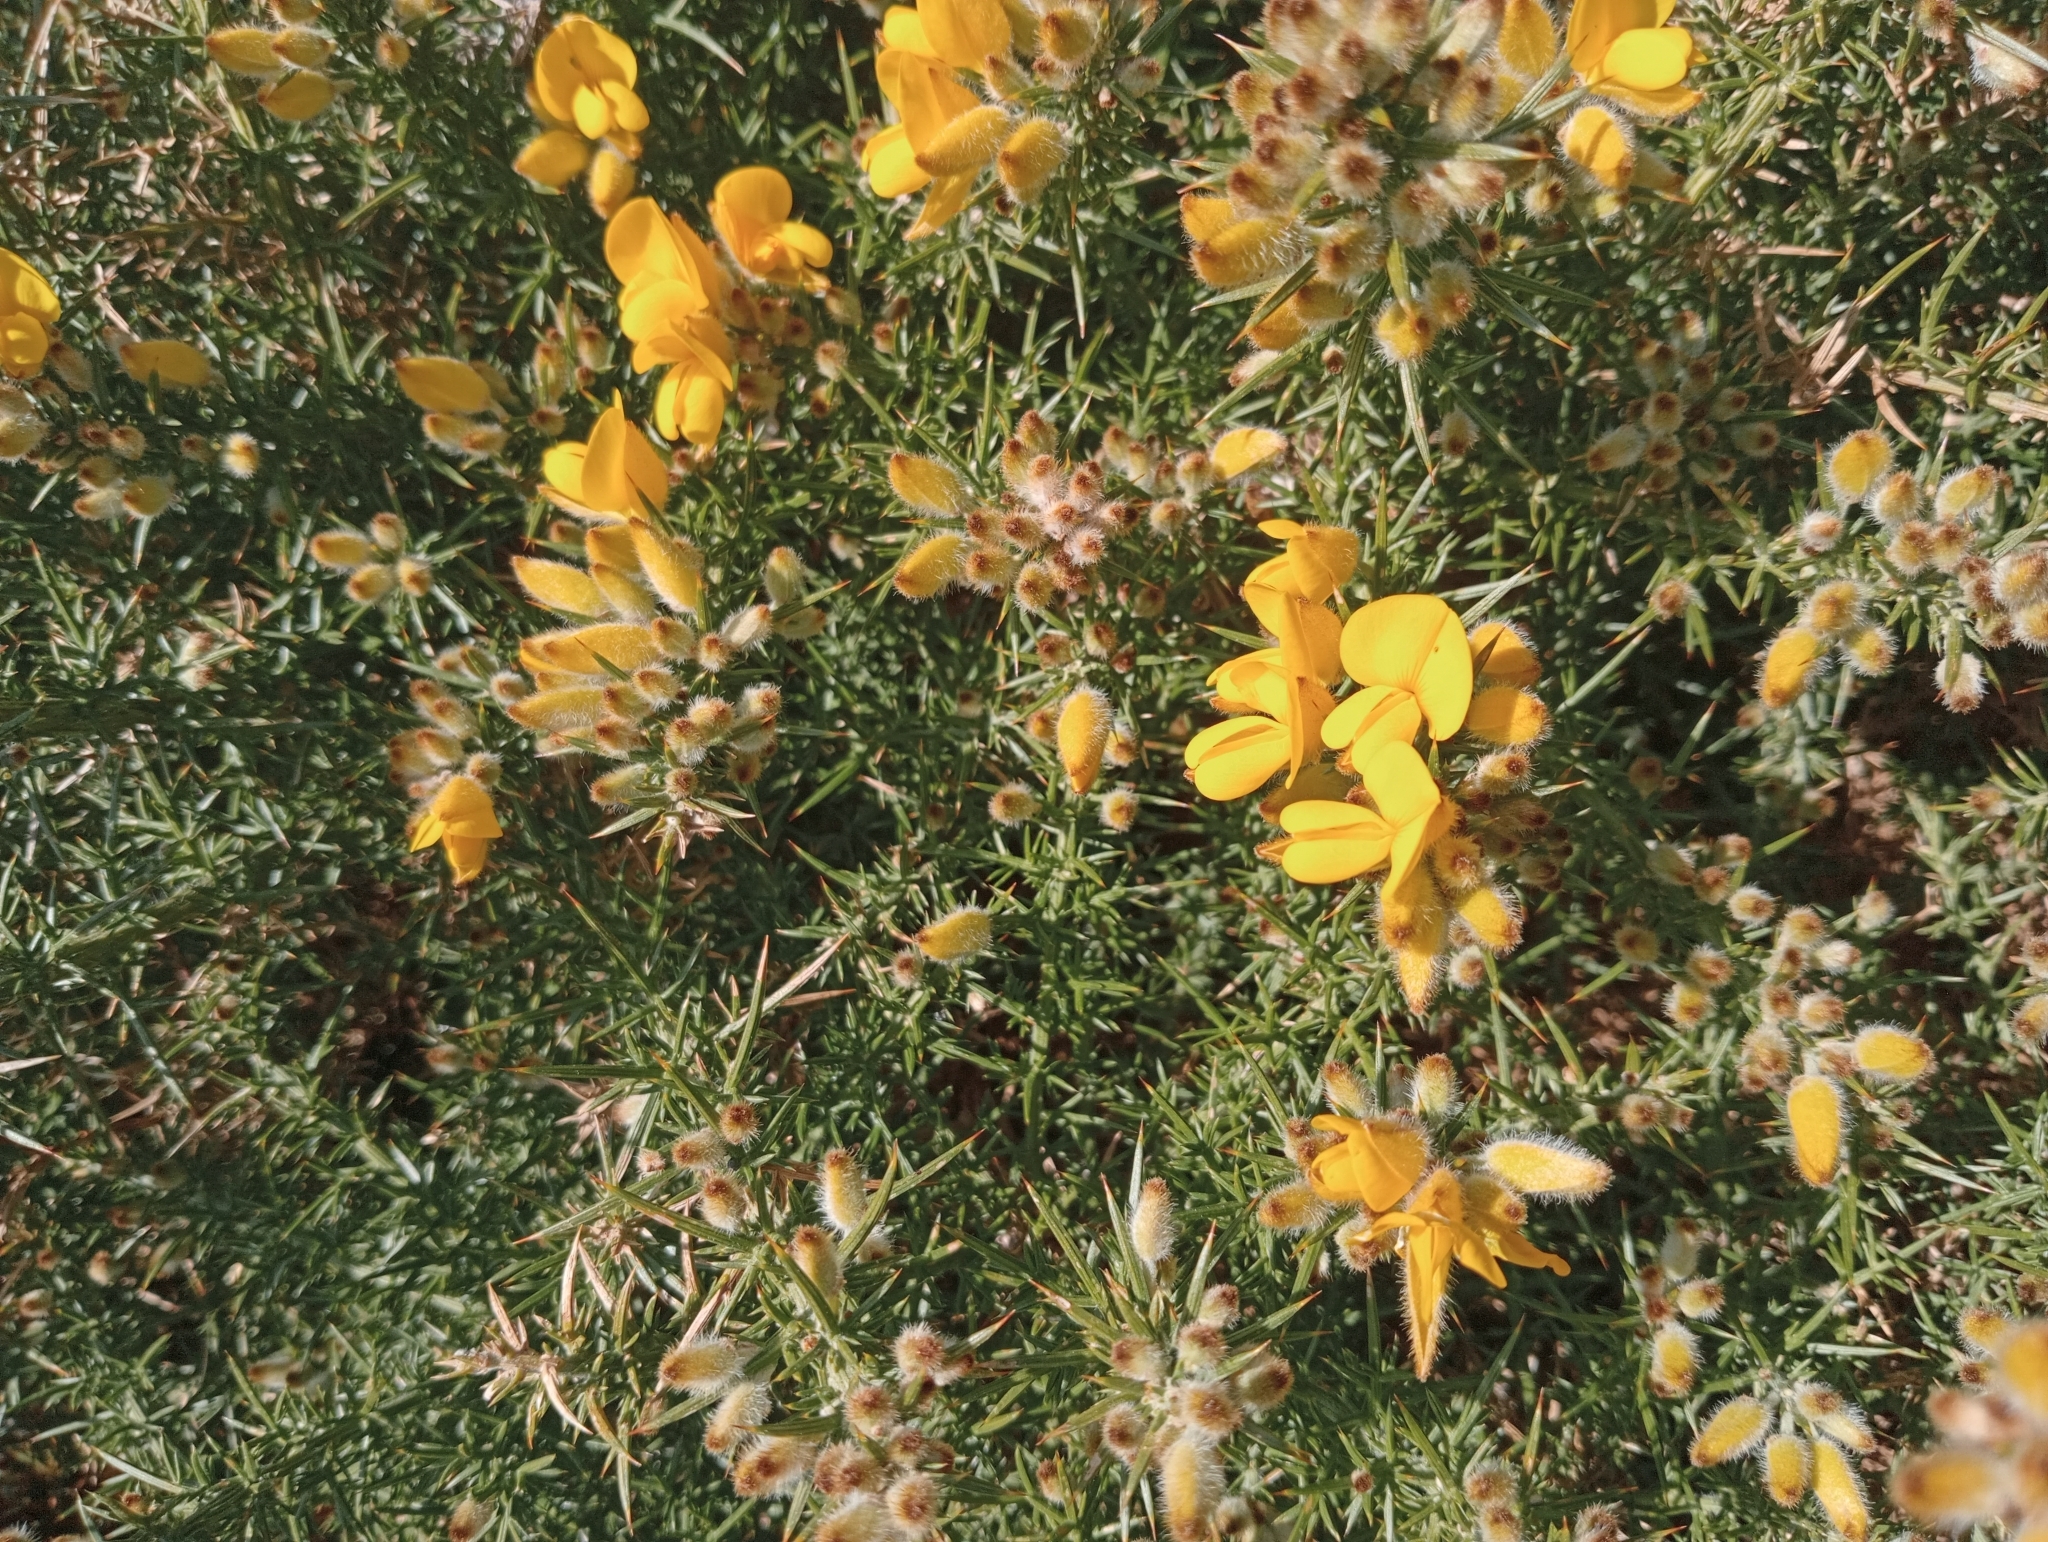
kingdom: Plantae
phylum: Tracheophyta
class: Magnoliopsida
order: Fabales
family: Fabaceae
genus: Ulex
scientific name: Ulex europaeus
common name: Common gorse
